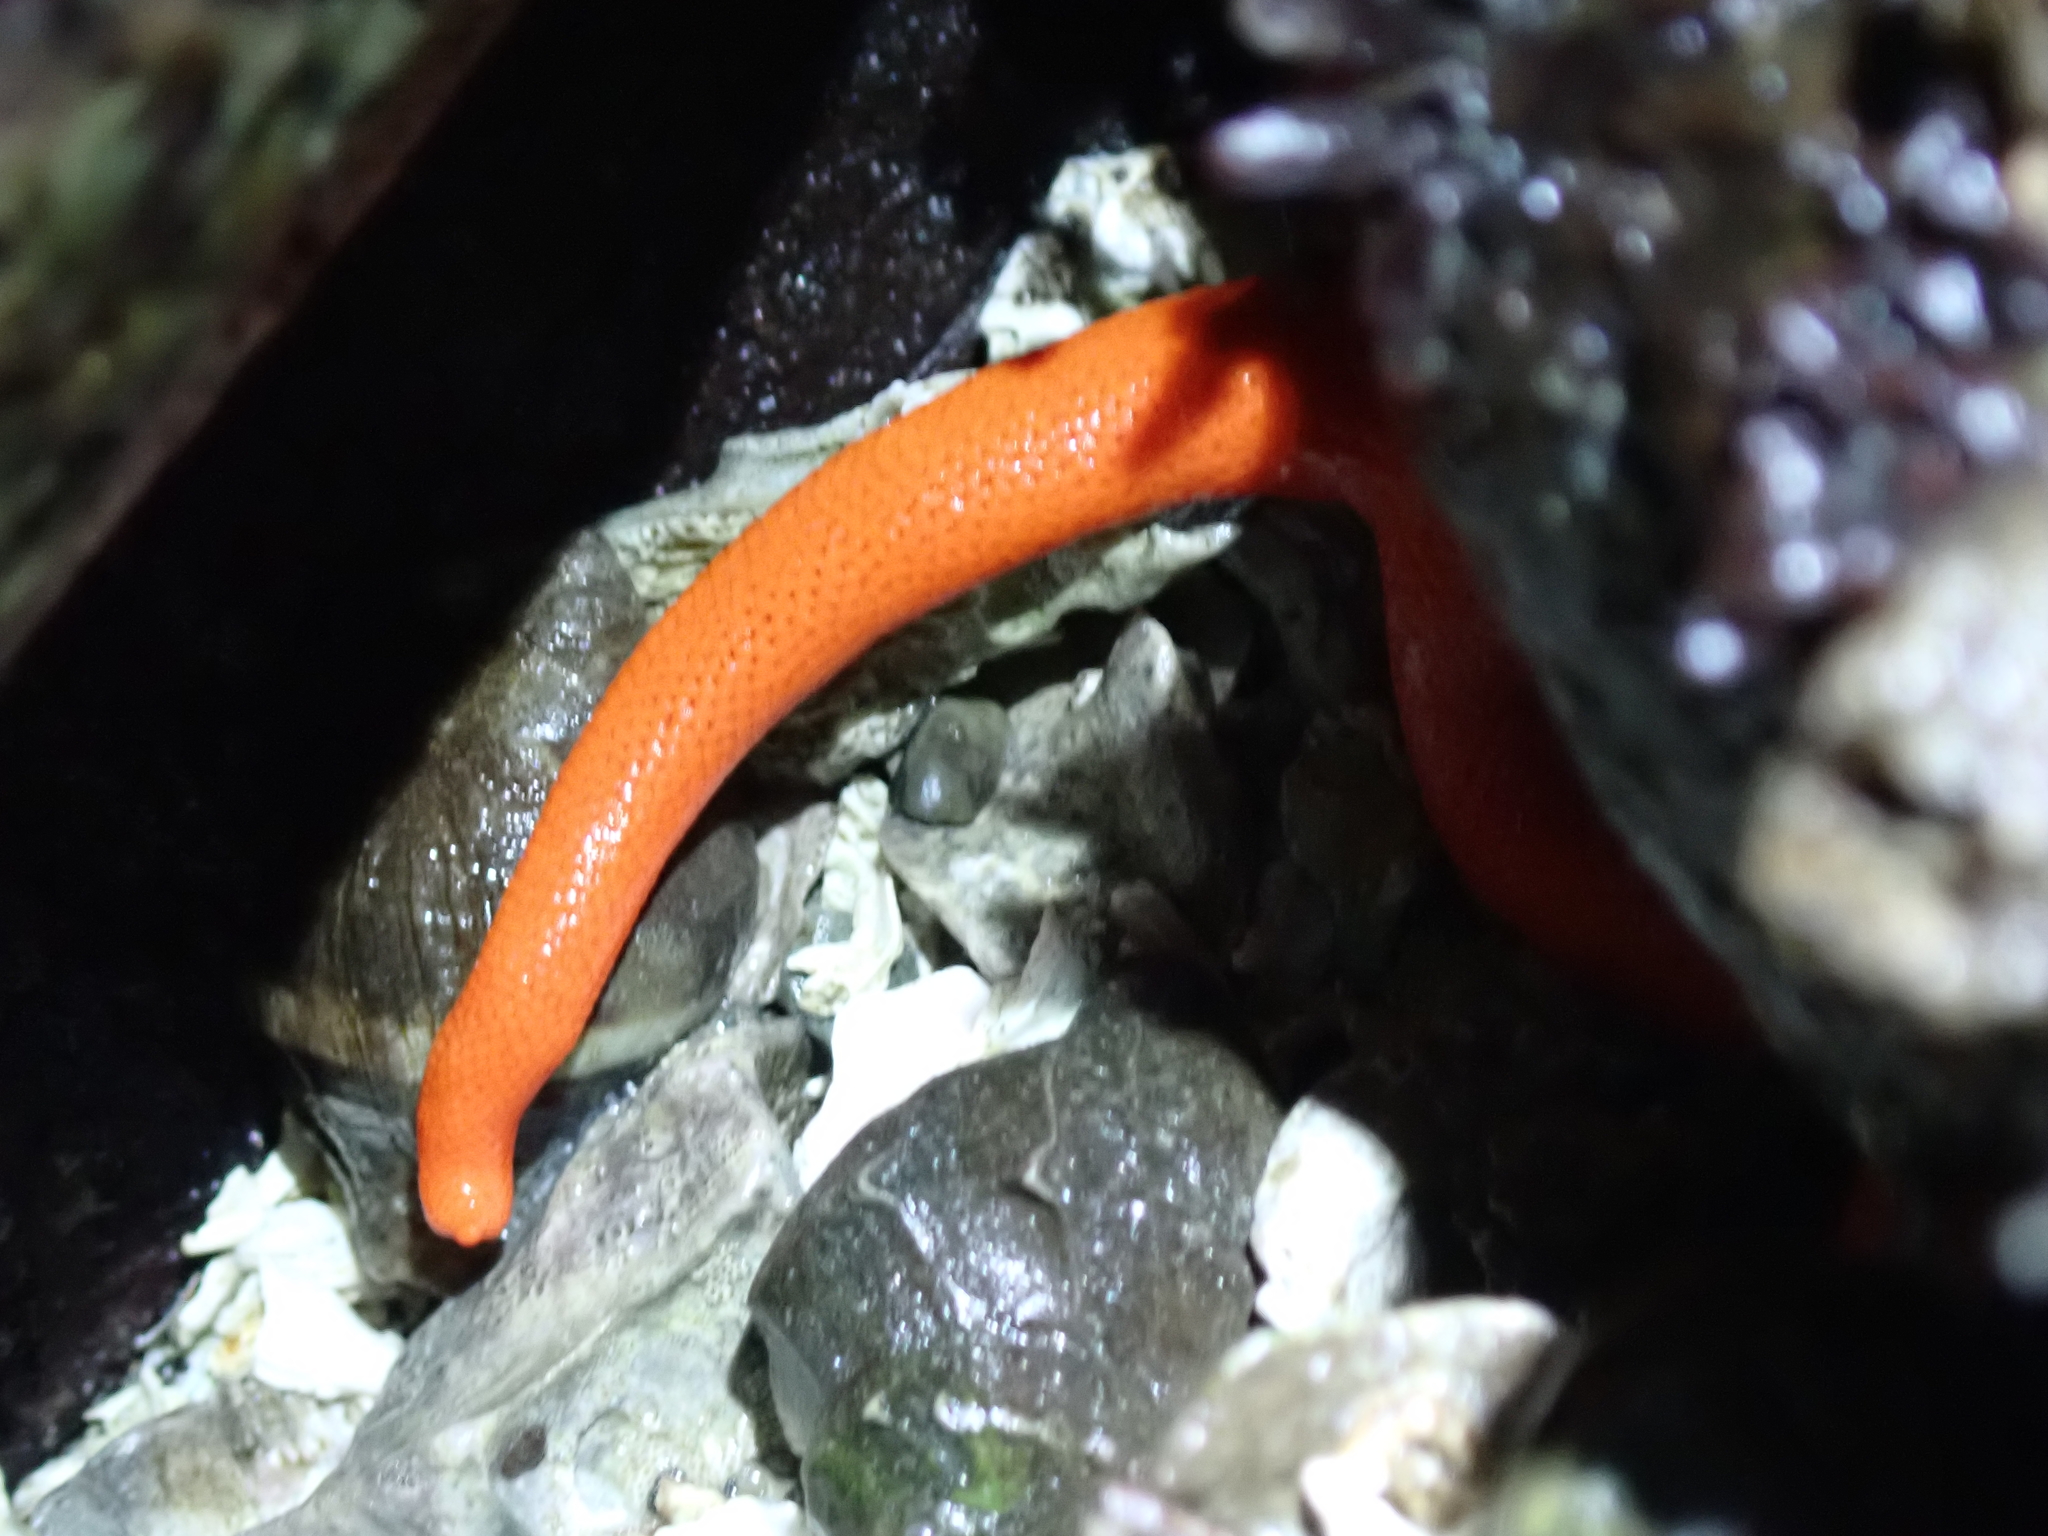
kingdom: Animalia
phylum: Echinodermata
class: Asteroidea
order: Spinulosida
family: Echinasteridae
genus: Henricia
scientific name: Henricia leviuscula
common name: Pacific blood star
